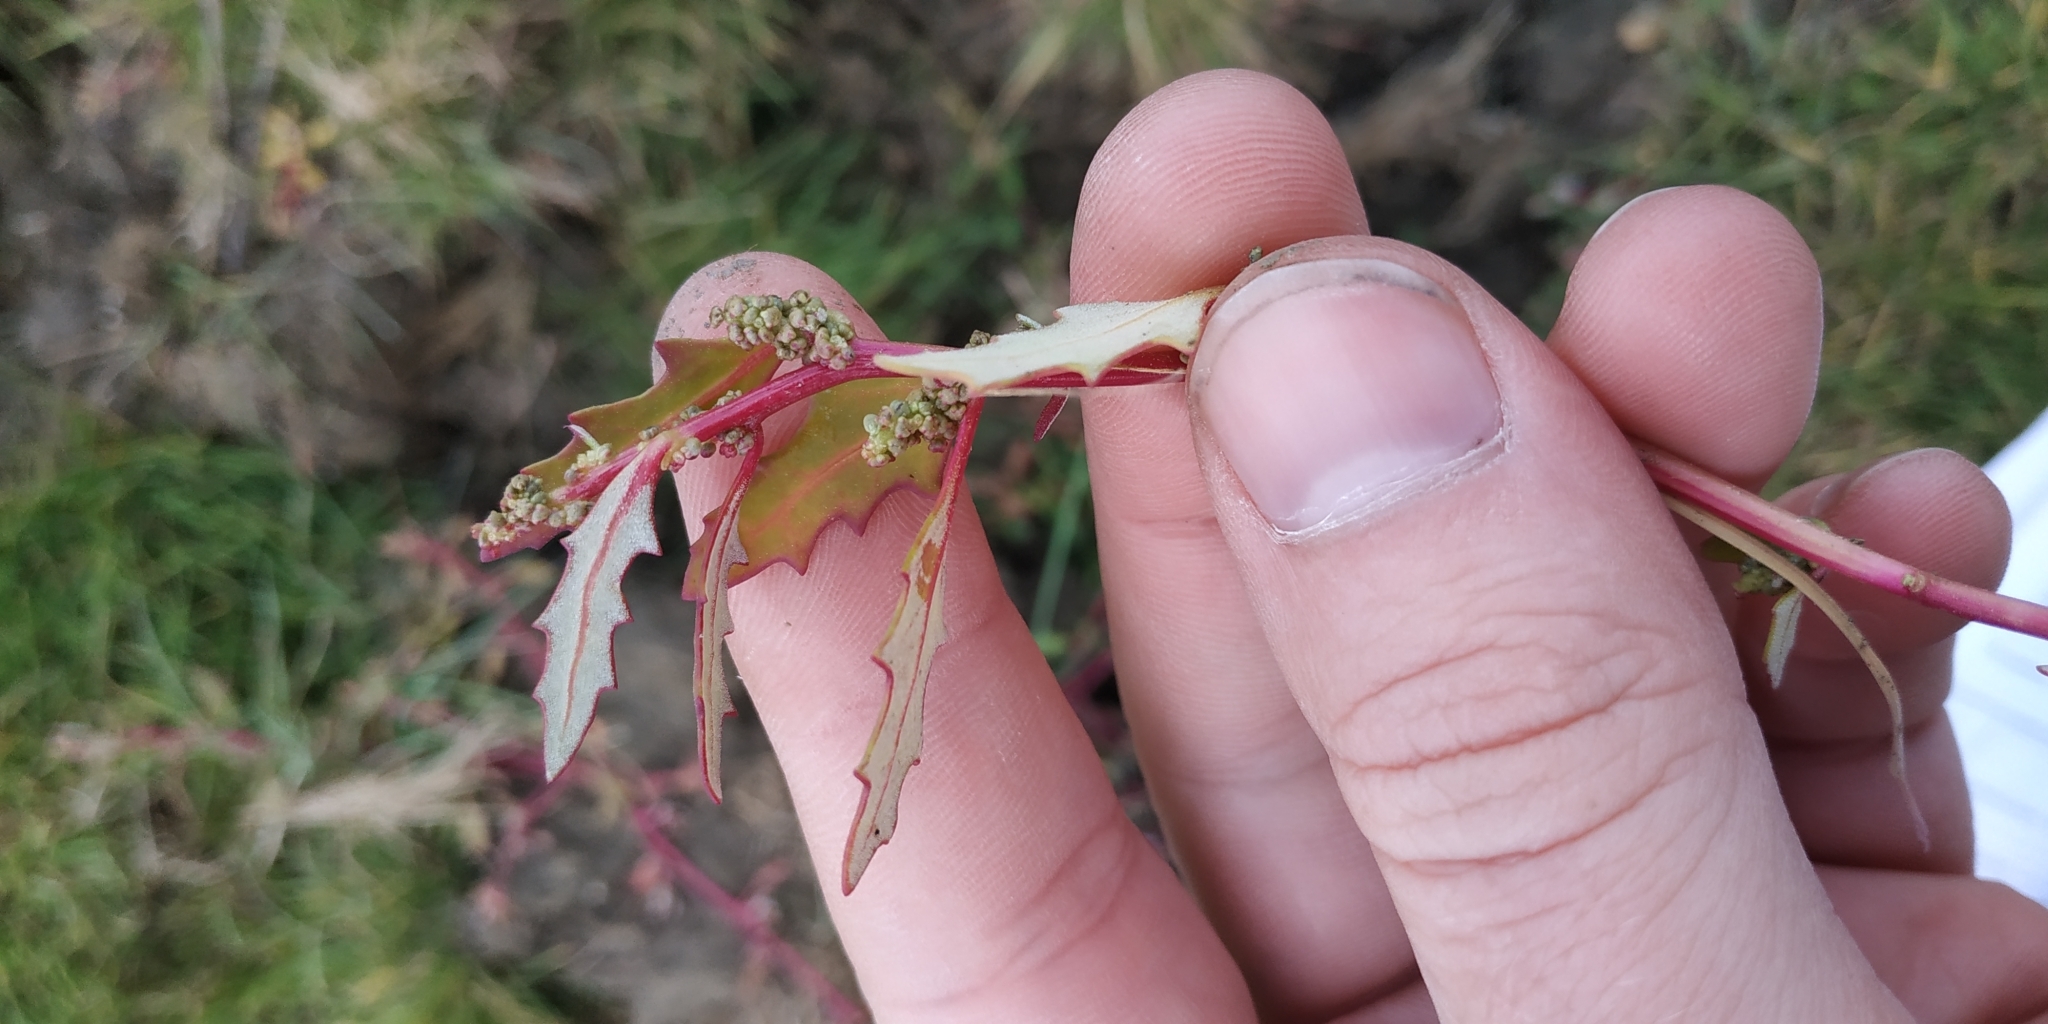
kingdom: Plantae
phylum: Tracheophyta
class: Magnoliopsida
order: Caryophyllales
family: Amaranthaceae
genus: Oxybasis
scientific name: Oxybasis glauca
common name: Glaucous goosefoot
